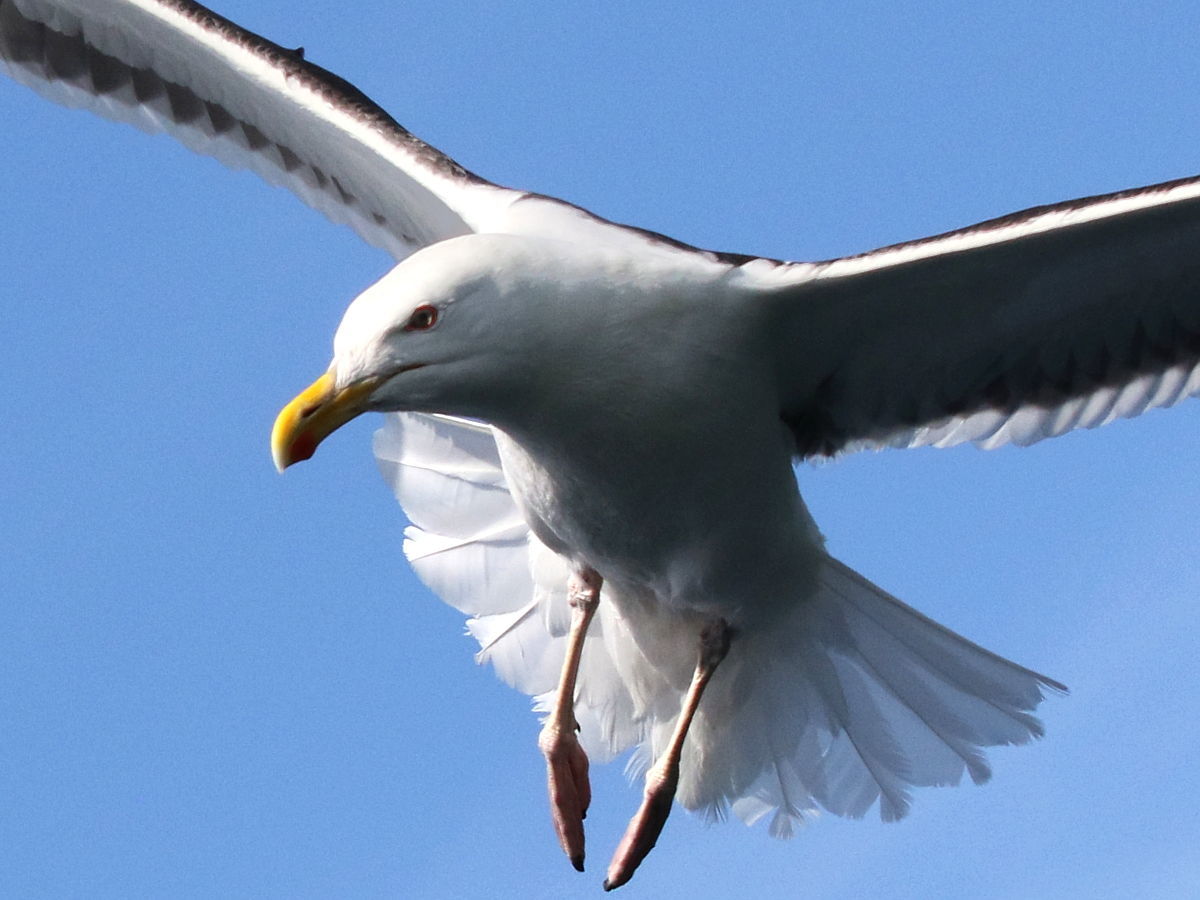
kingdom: Animalia
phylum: Chordata
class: Aves
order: Charadriiformes
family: Laridae
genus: Larus
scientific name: Larus marinus
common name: Great black-backed gull
